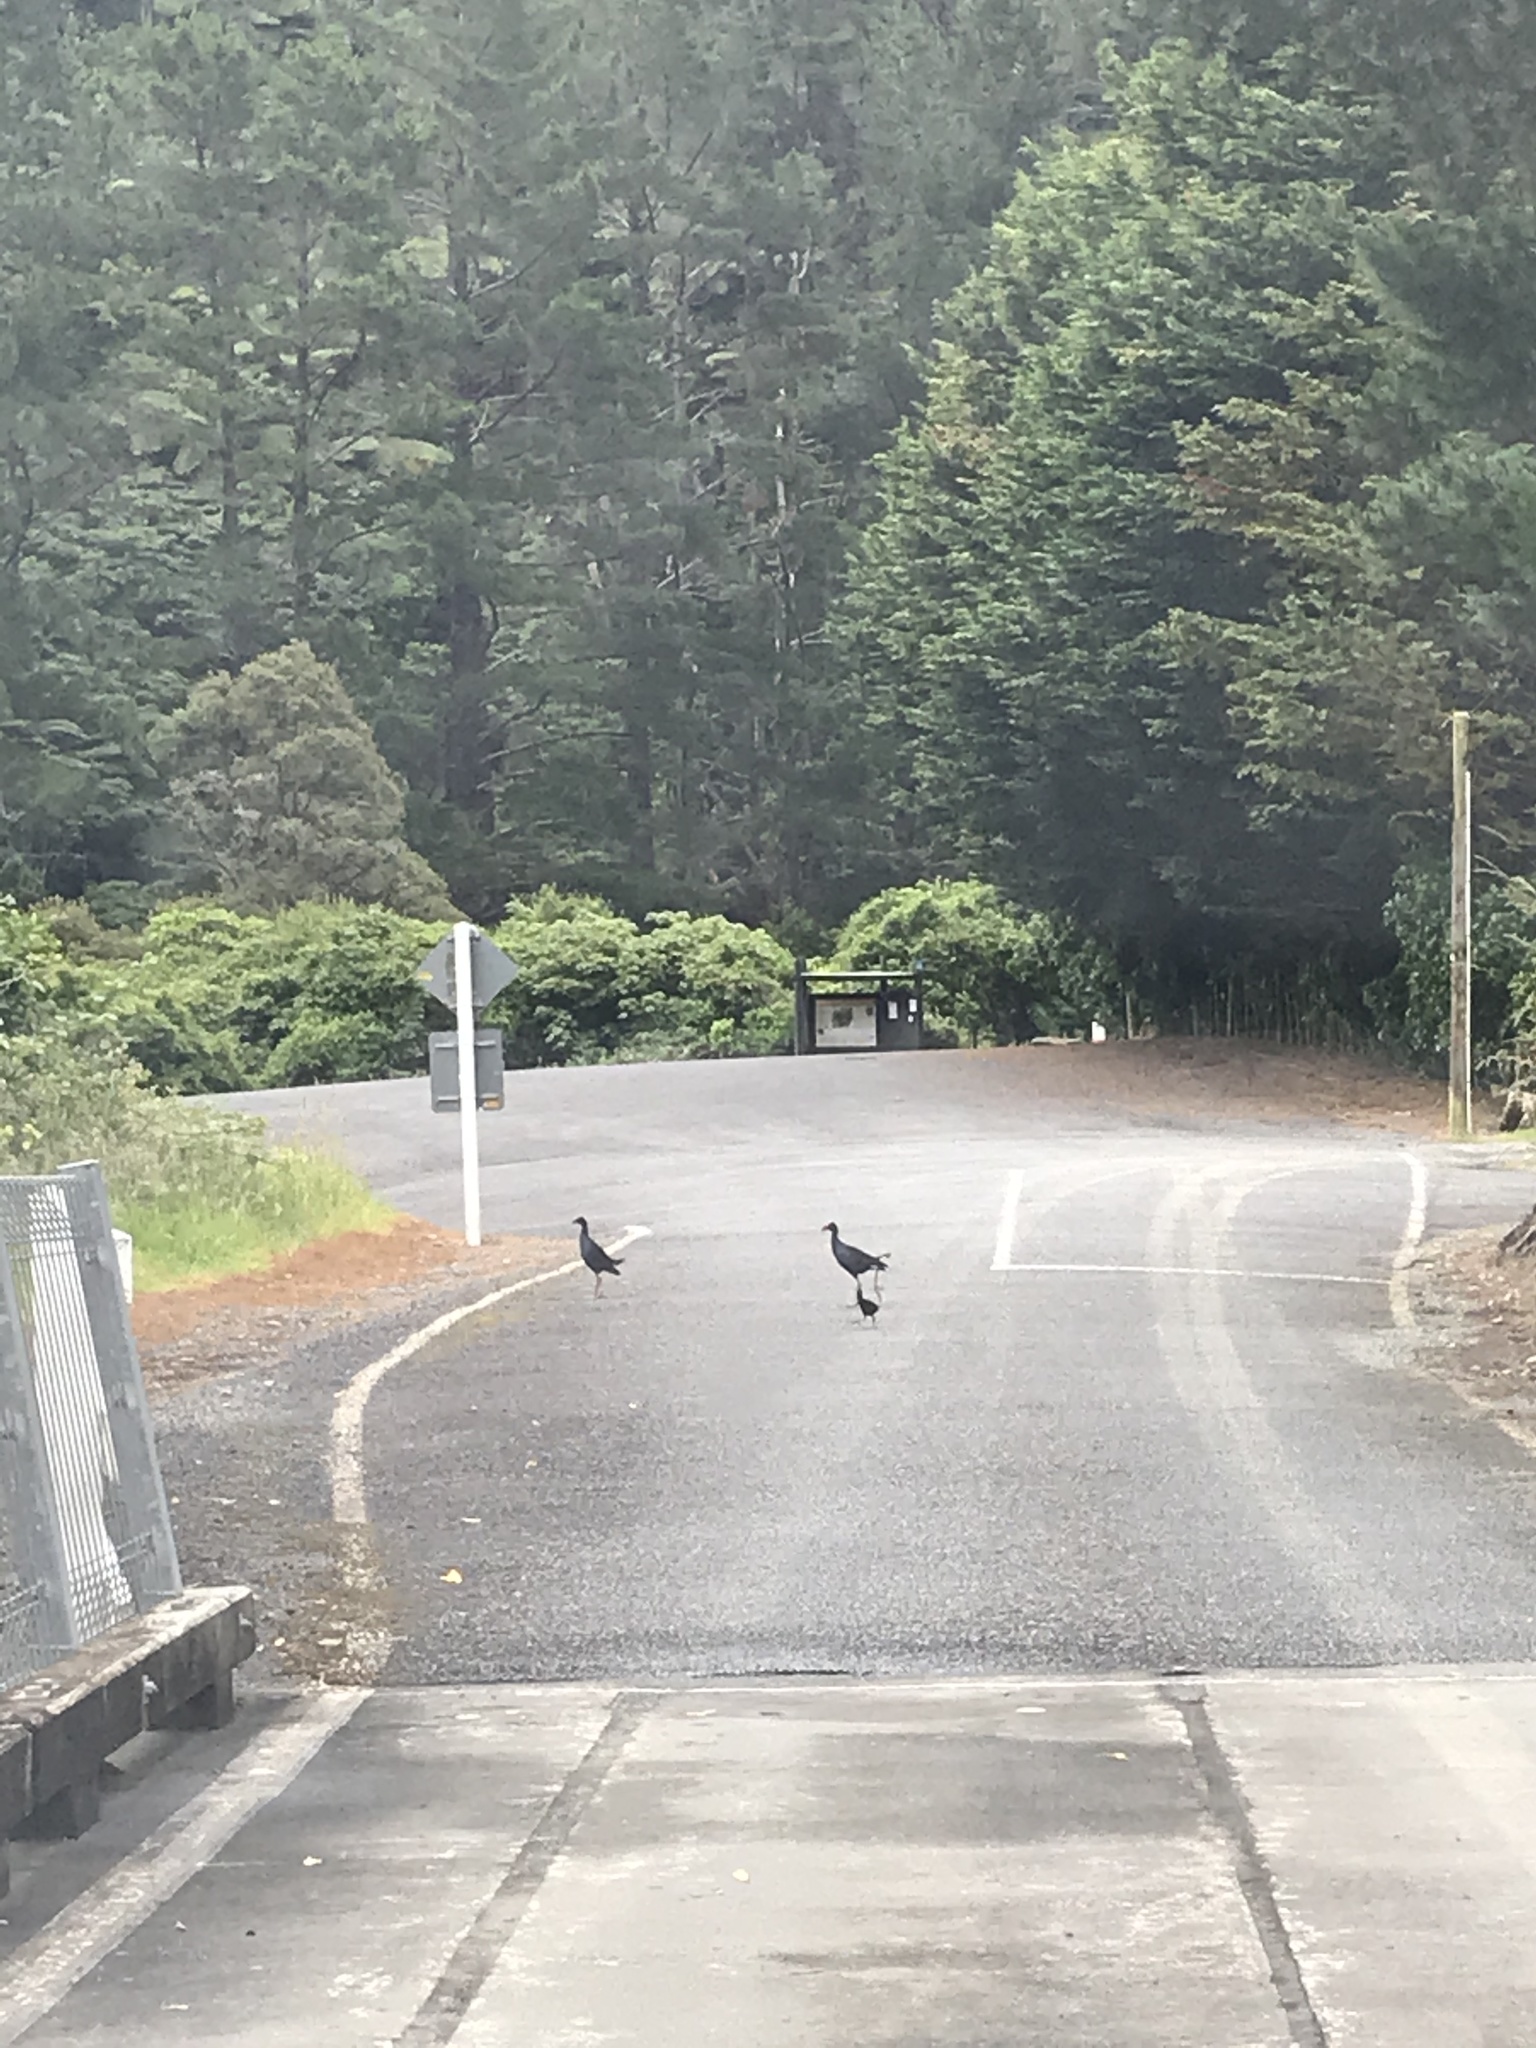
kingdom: Animalia
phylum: Chordata
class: Aves
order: Gruiformes
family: Rallidae
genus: Porphyrio
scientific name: Porphyrio melanotus
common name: Australasian swamphen
